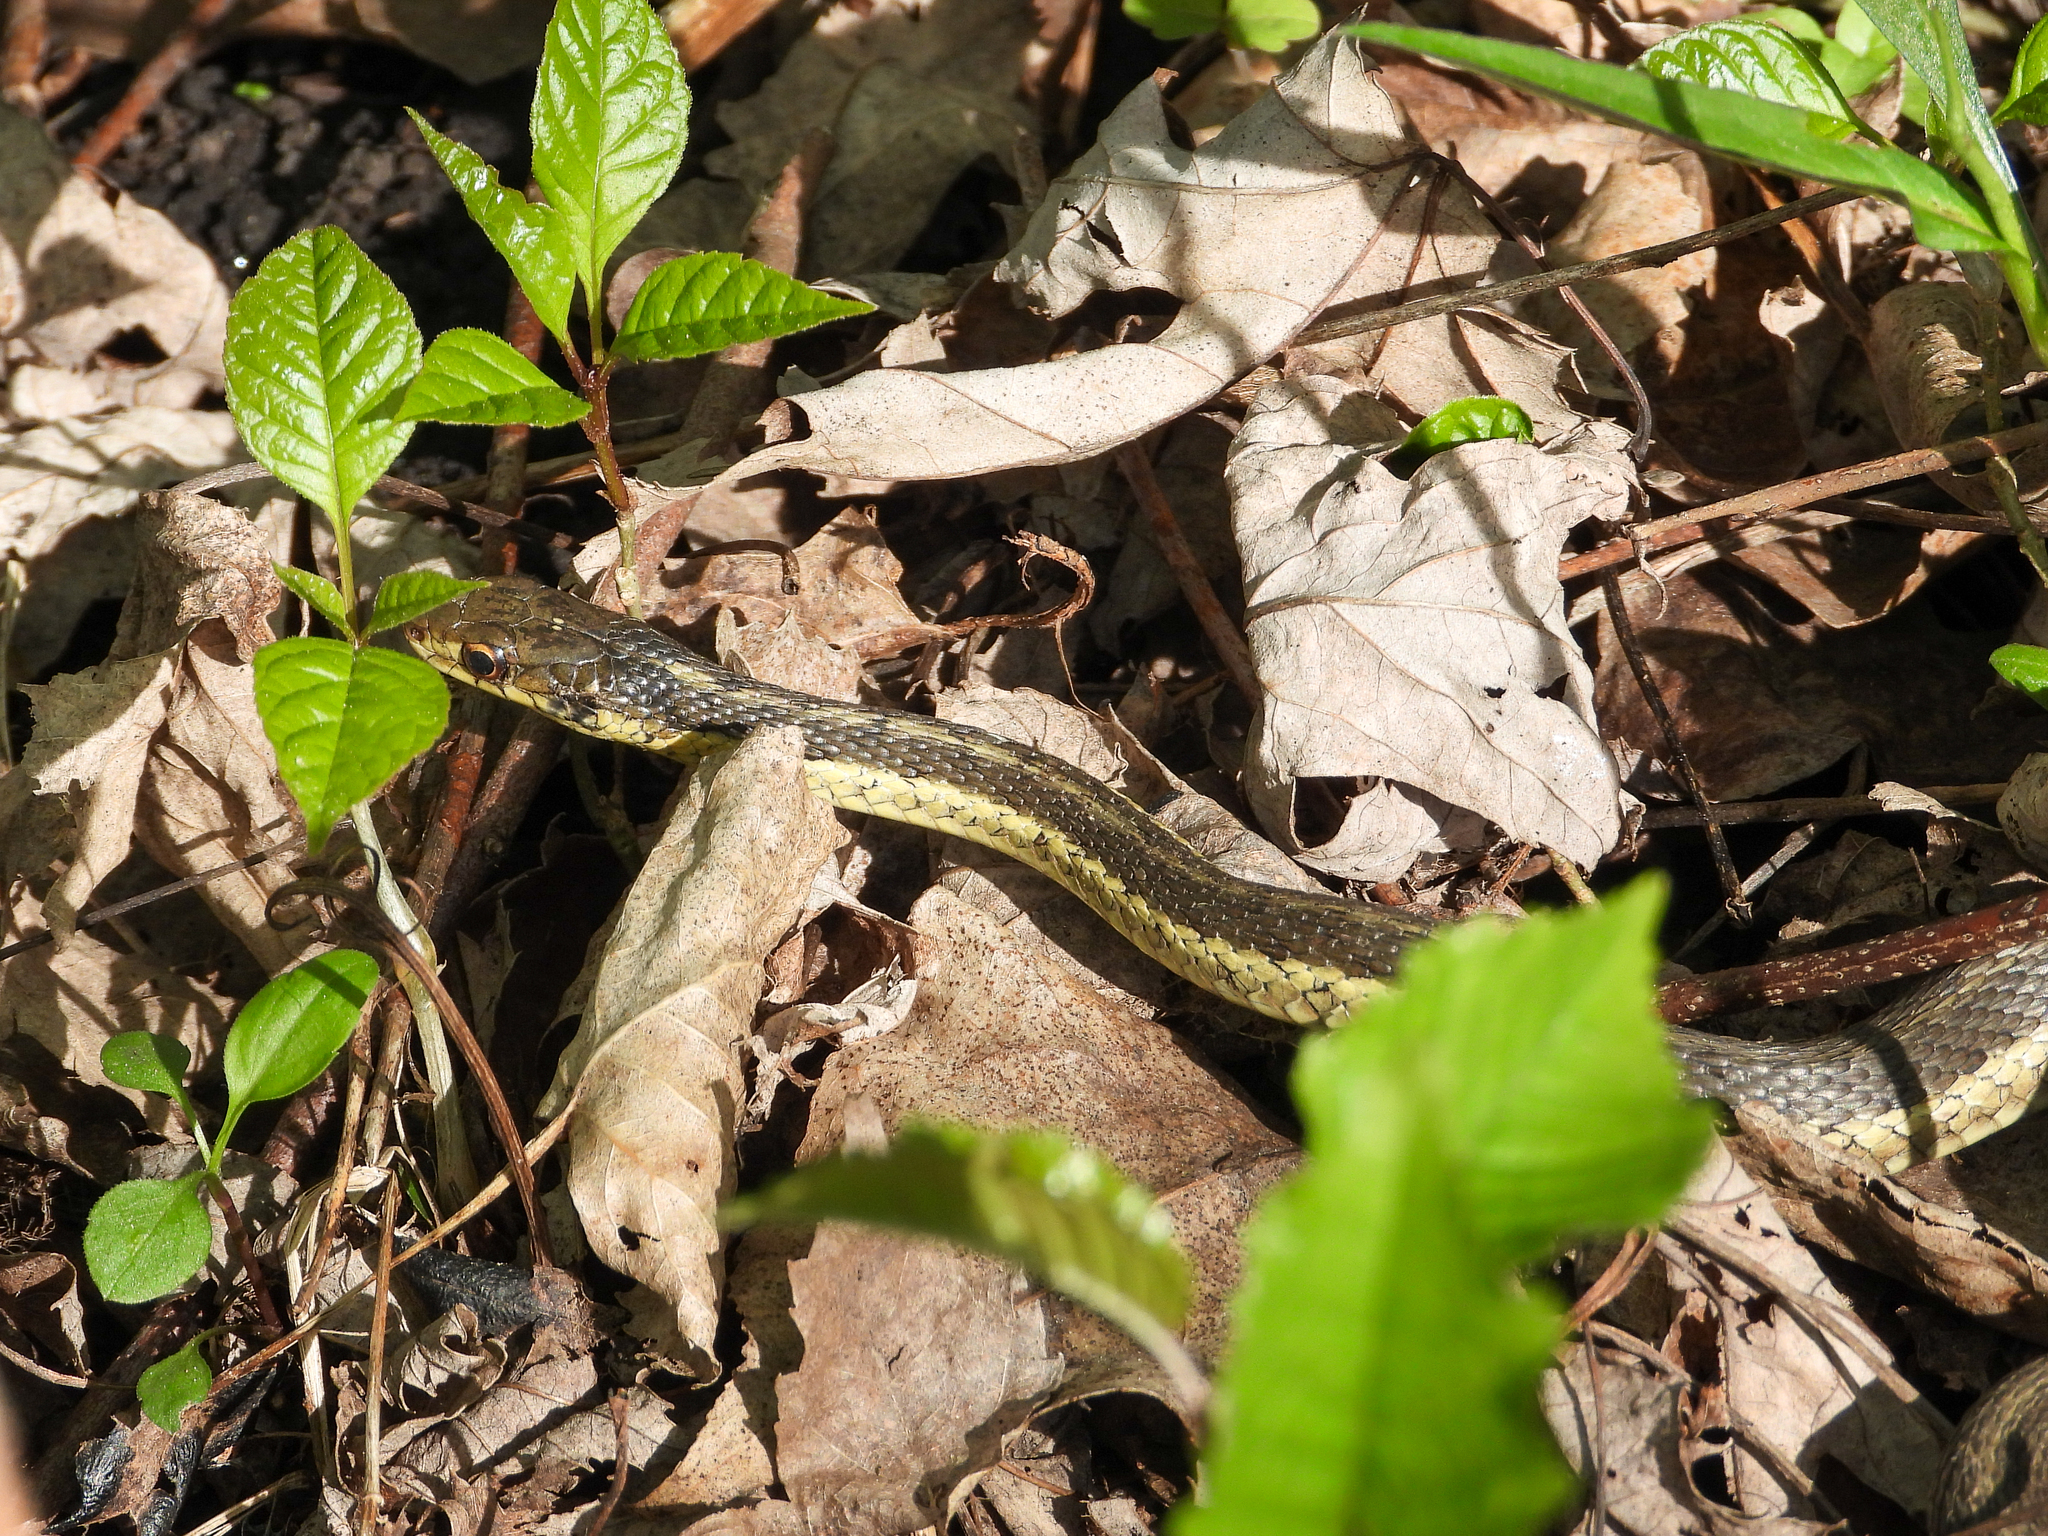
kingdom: Animalia
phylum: Chordata
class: Squamata
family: Colubridae
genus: Thamnophis
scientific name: Thamnophis sirtalis
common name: Common garter snake
